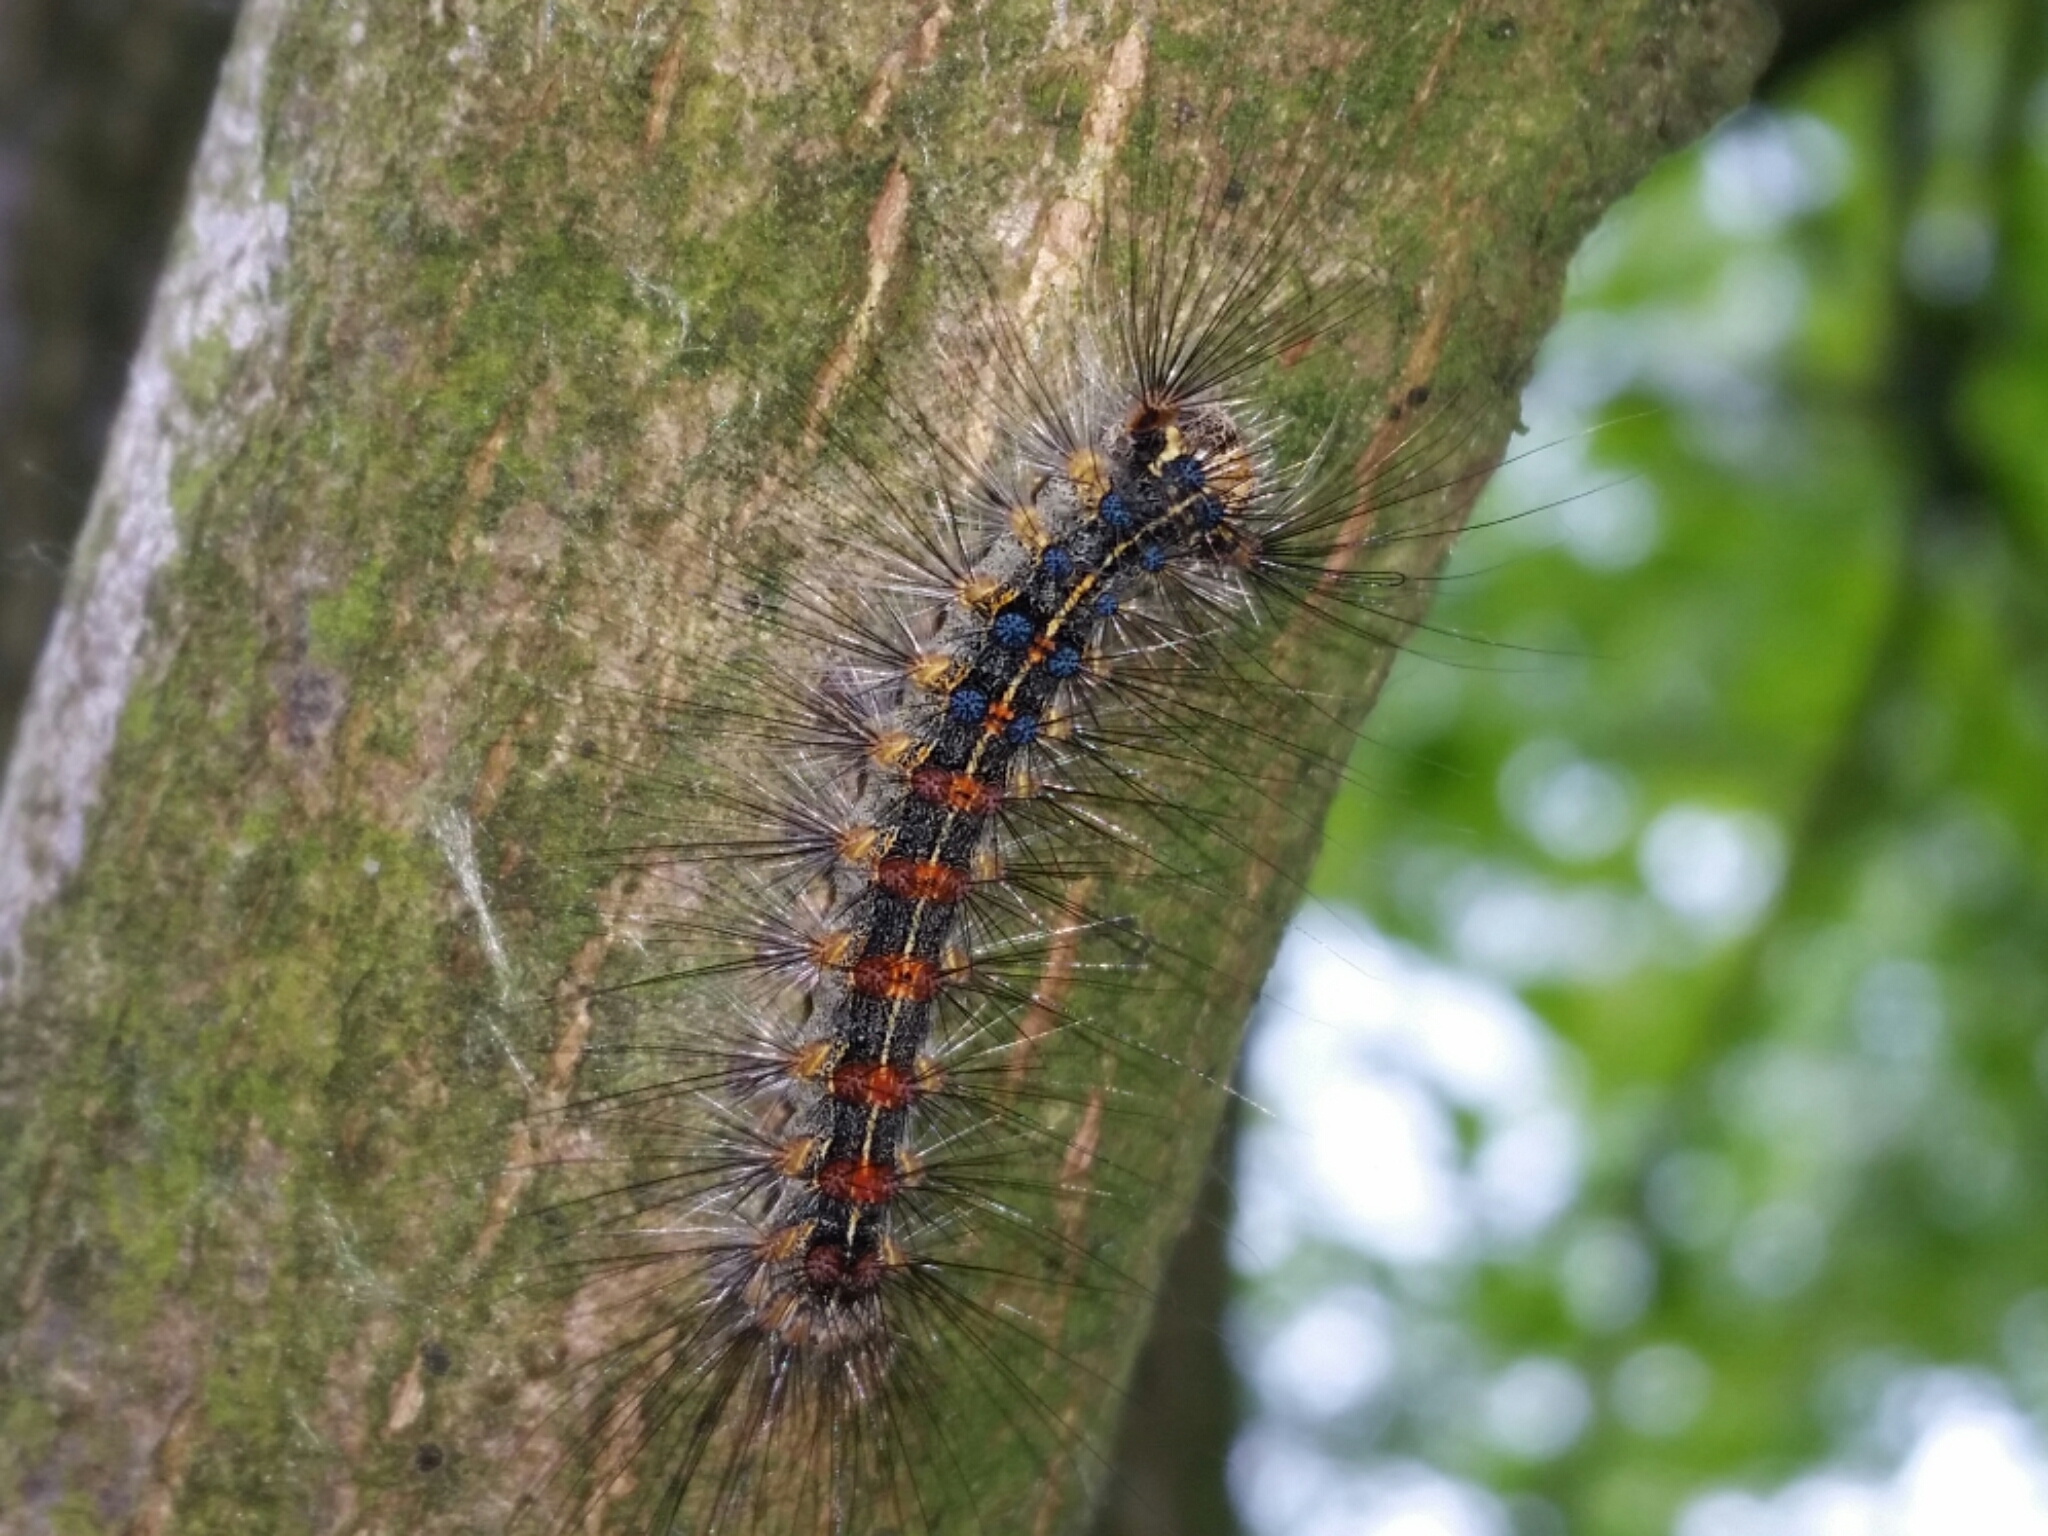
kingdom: Animalia
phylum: Arthropoda
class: Insecta
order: Lepidoptera
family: Erebidae
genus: Lymantria
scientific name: Lymantria dispar
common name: Gypsy moth
